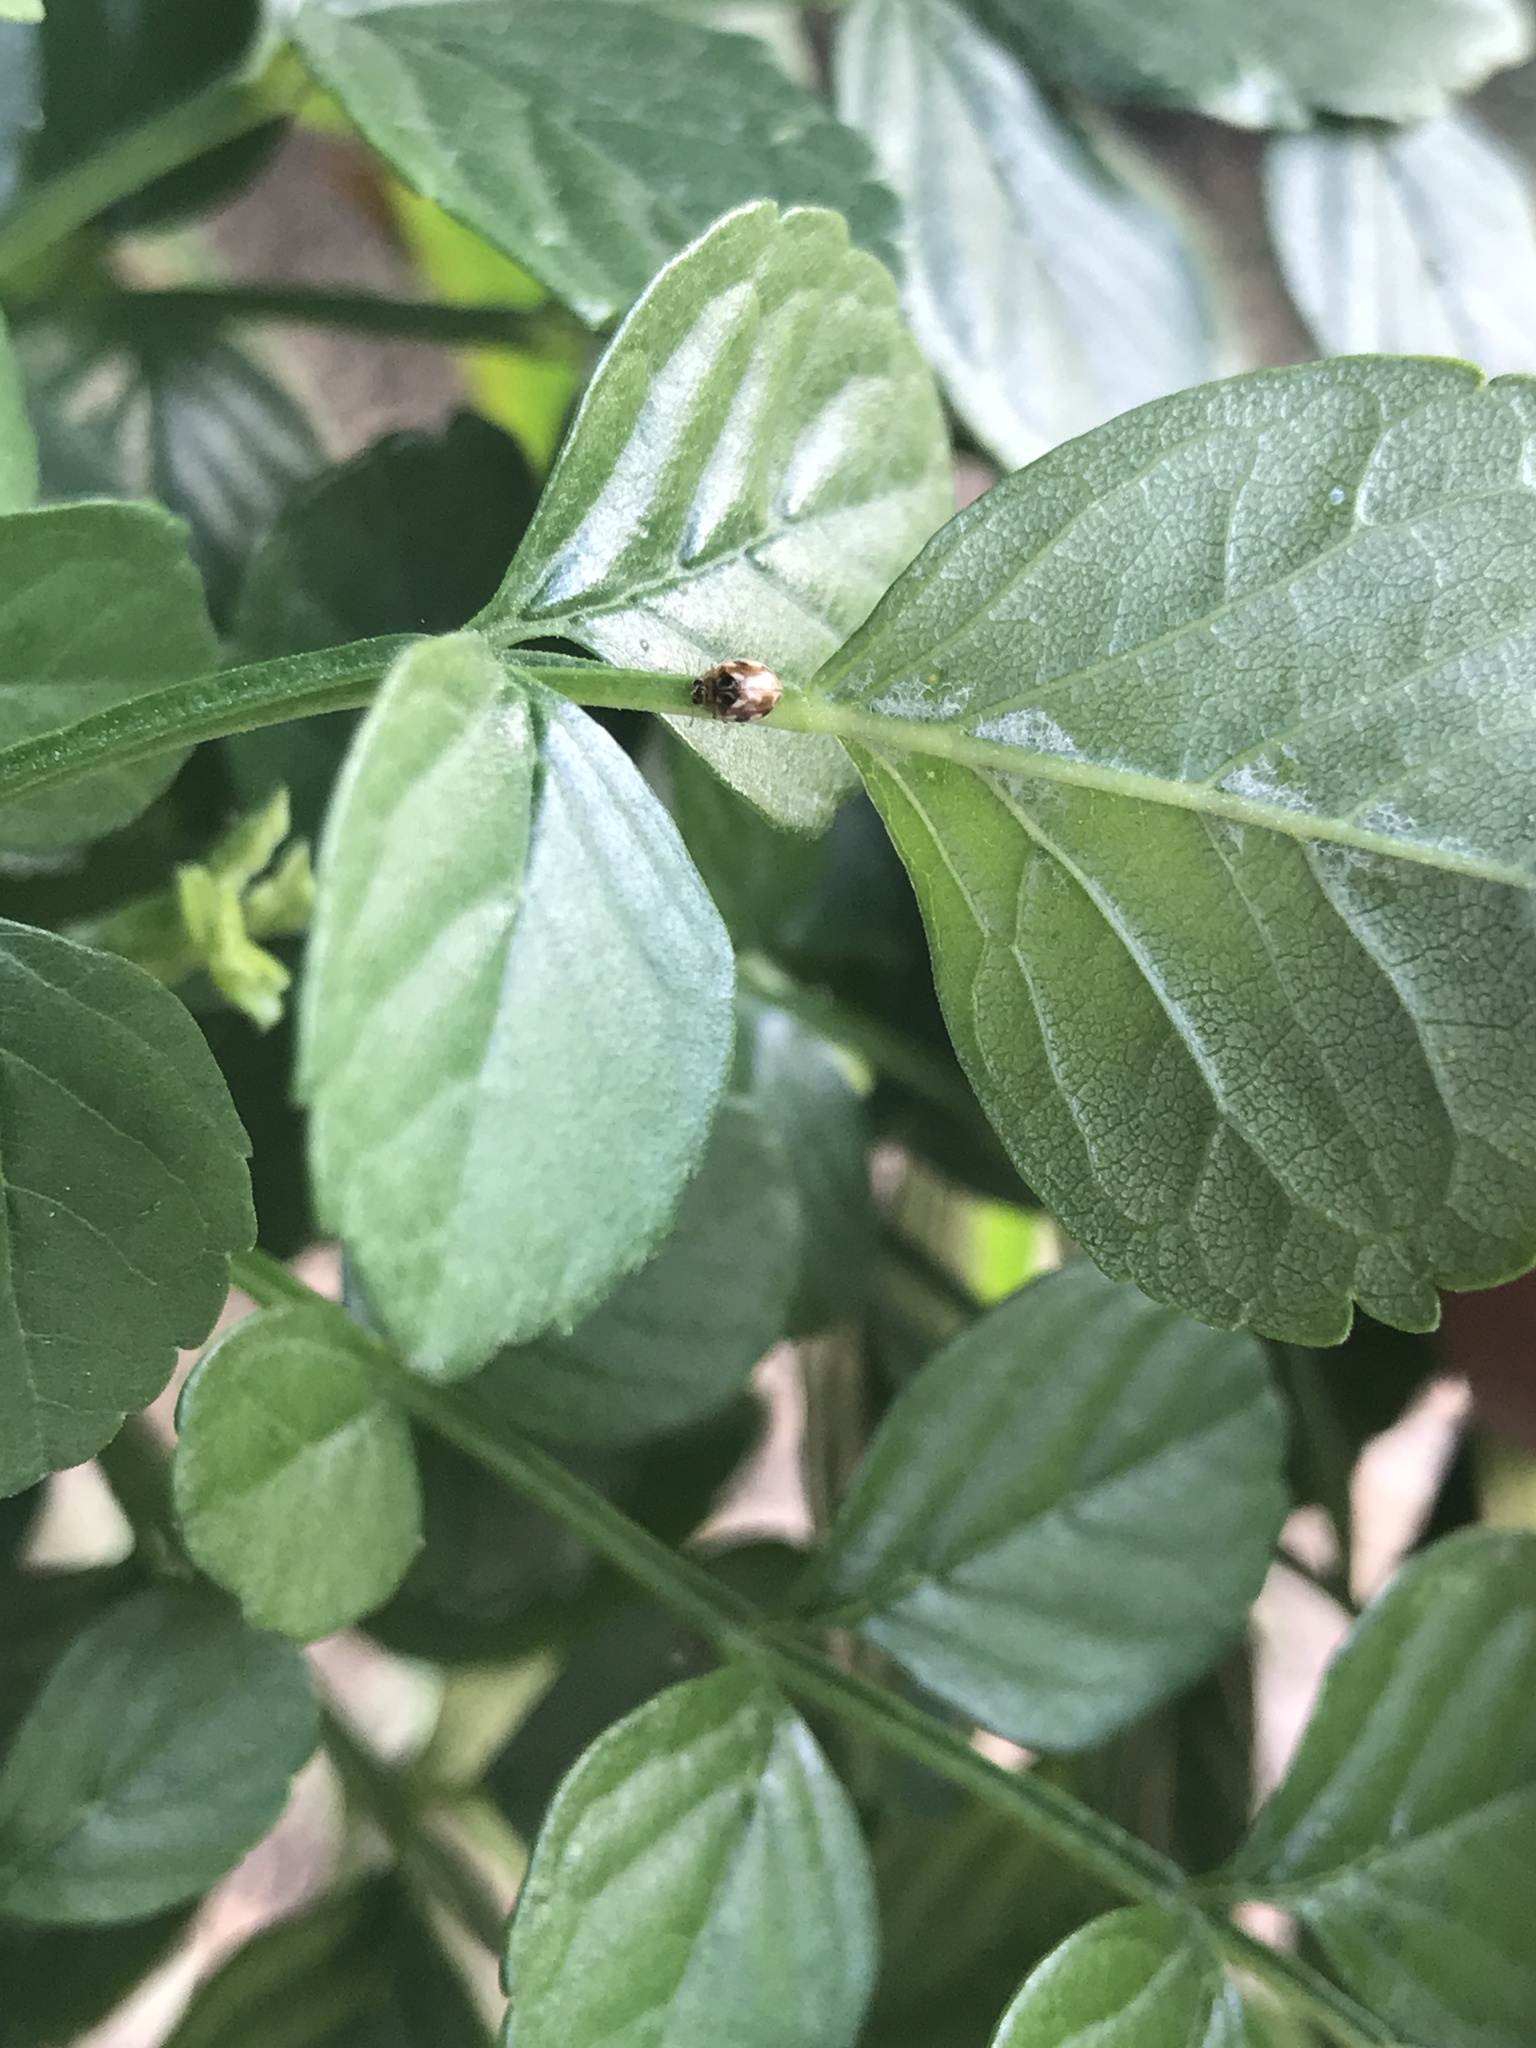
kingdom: Animalia
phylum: Arthropoda
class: Insecta
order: Coleoptera
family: Coccinellidae
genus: Psyllobora
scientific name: Psyllobora vigintimaculata
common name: Ladybird beetle
